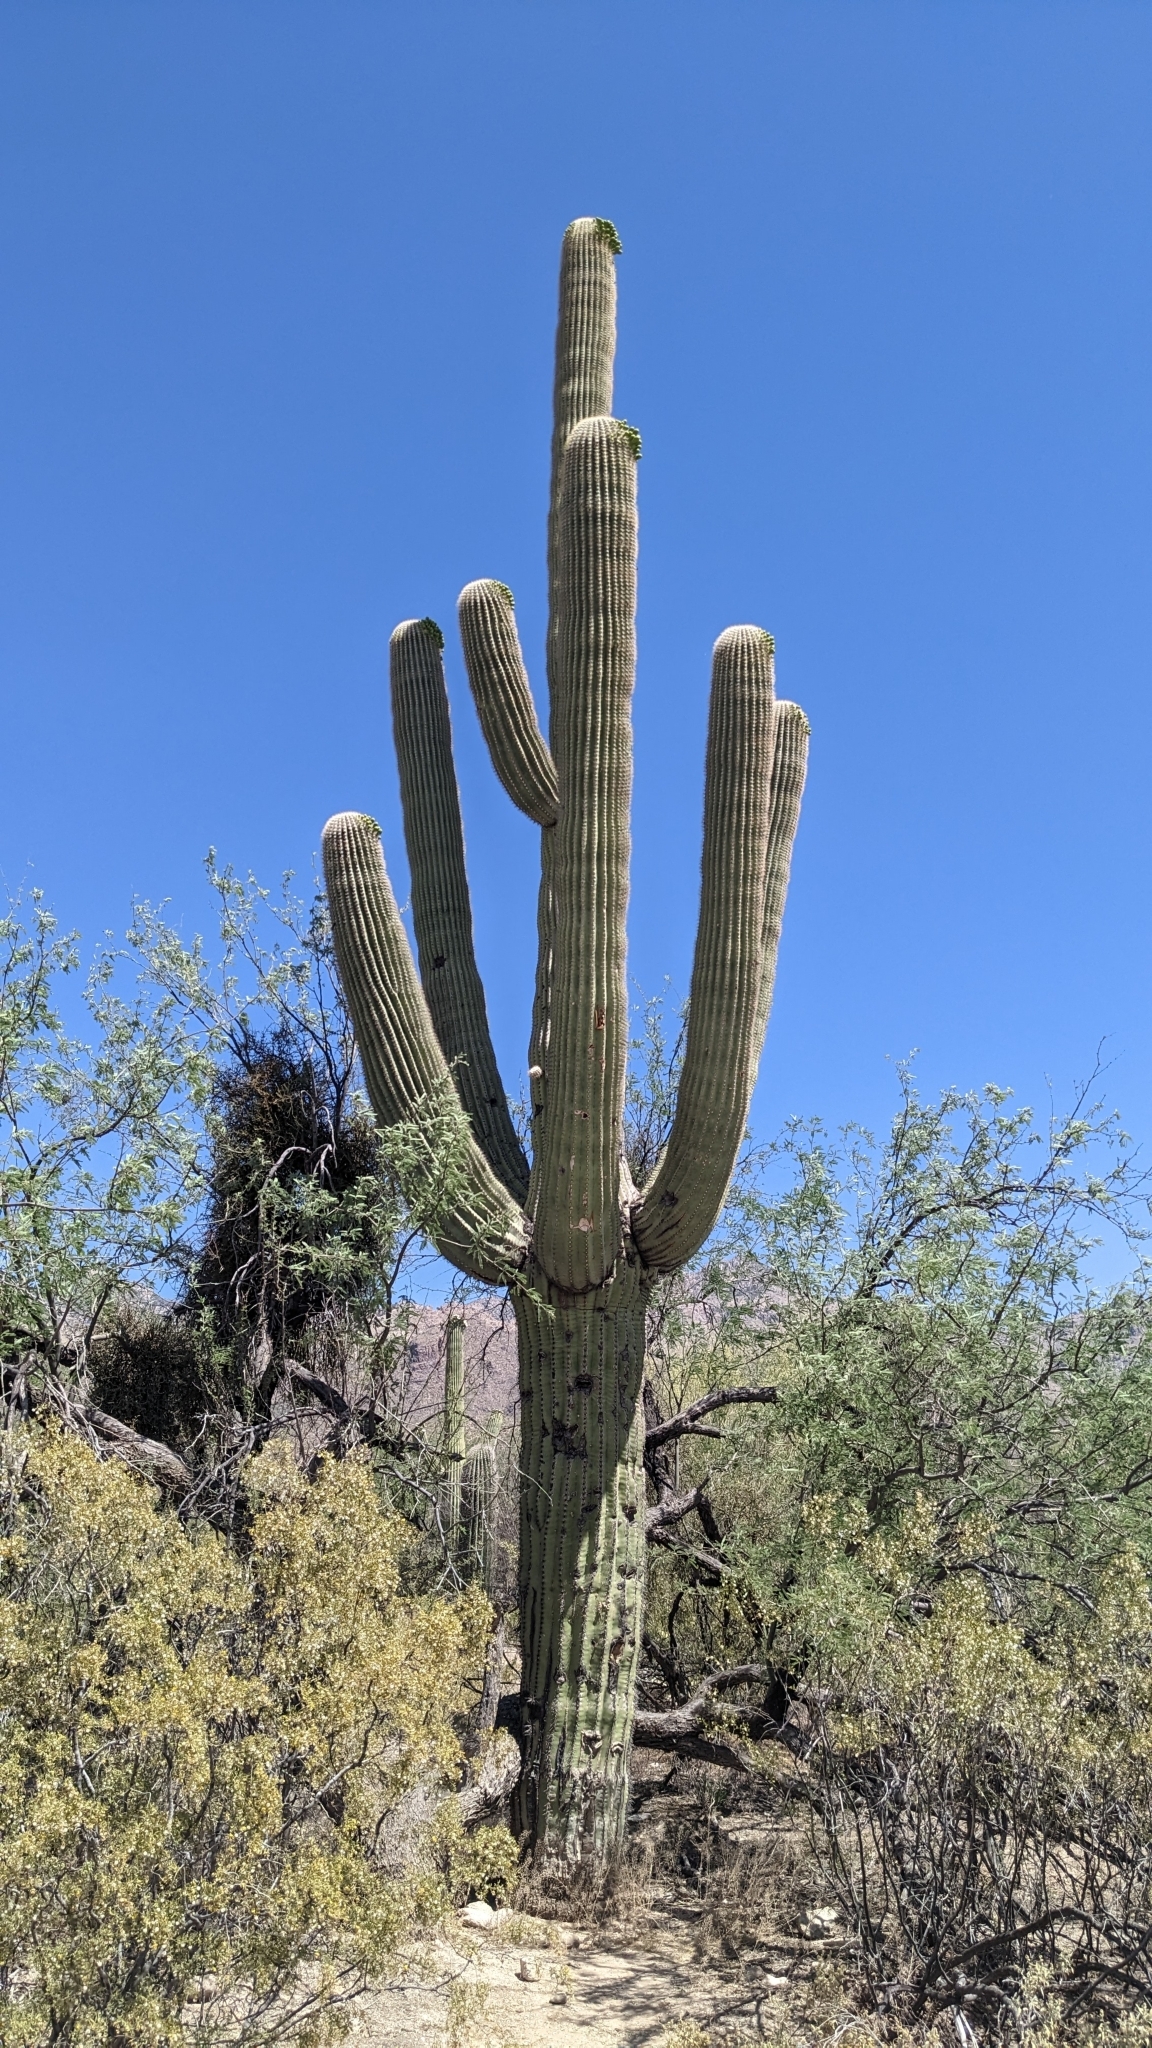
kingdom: Plantae
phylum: Tracheophyta
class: Magnoliopsida
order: Caryophyllales
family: Cactaceae
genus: Carnegiea
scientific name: Carnegiea gigantea
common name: Saguaro
